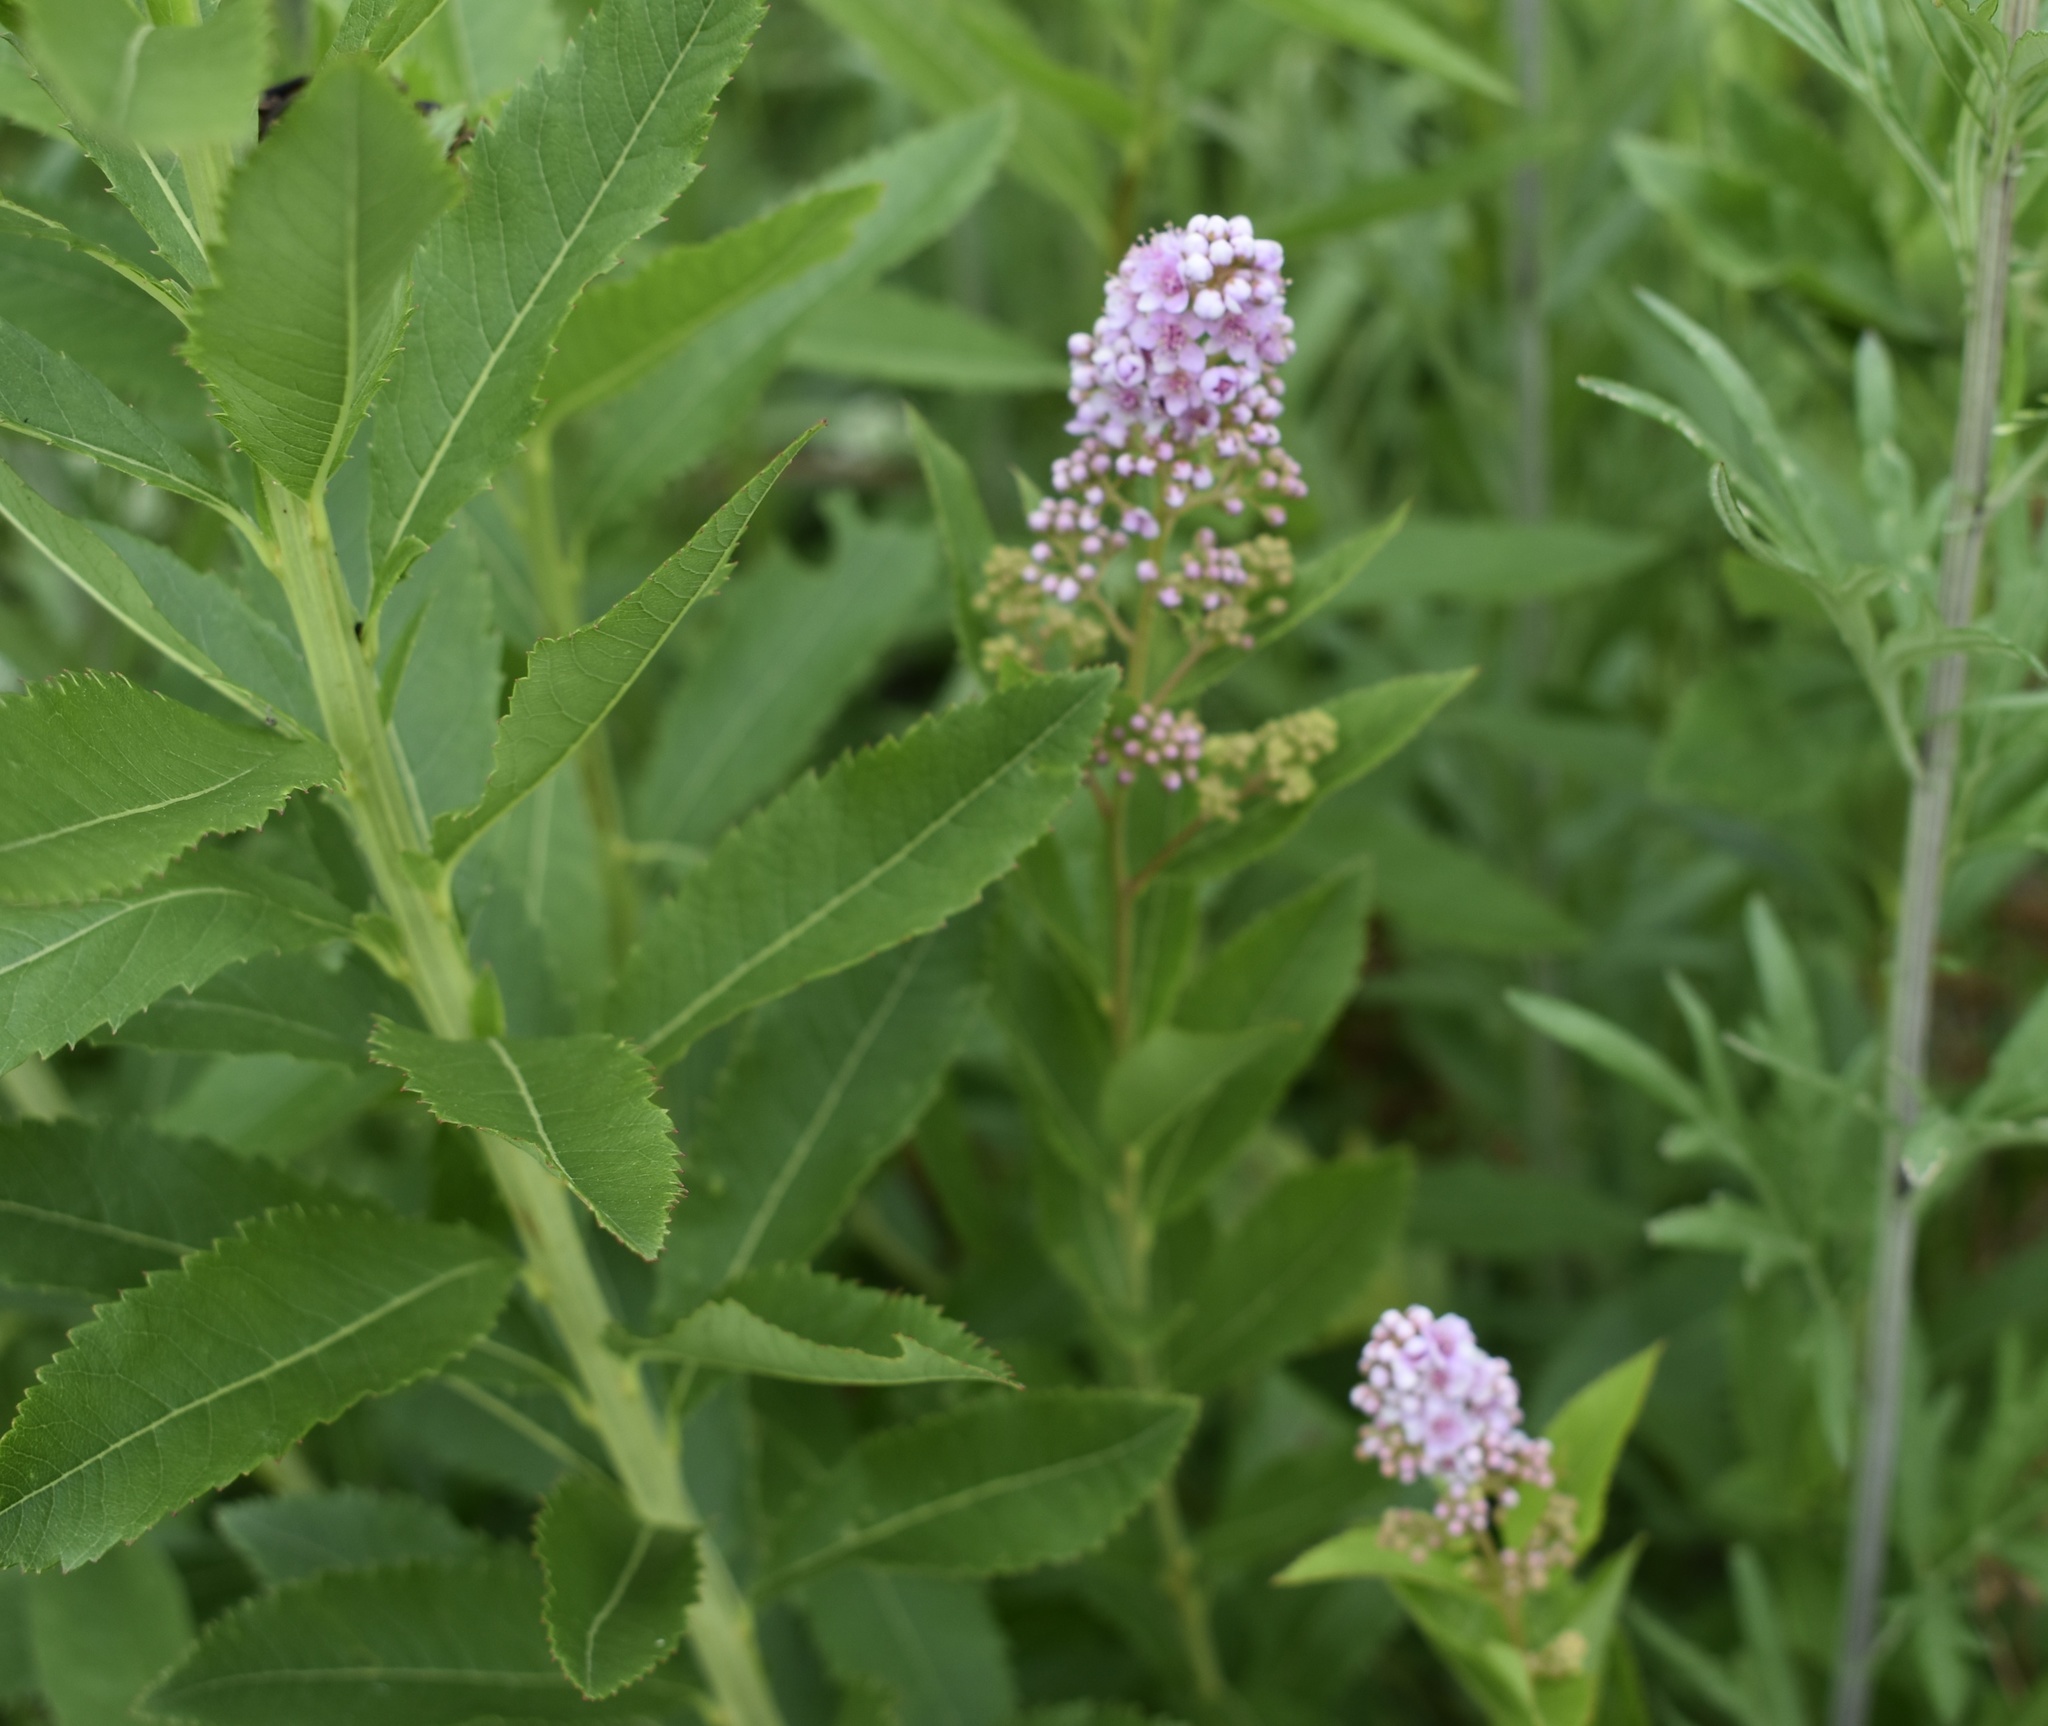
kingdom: Plantae
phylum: Tracheophyta
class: Magnoliopsida
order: Rosales
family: Rosaceae
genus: Spiraea
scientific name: Spiraea salicifolia
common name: Bridewort
